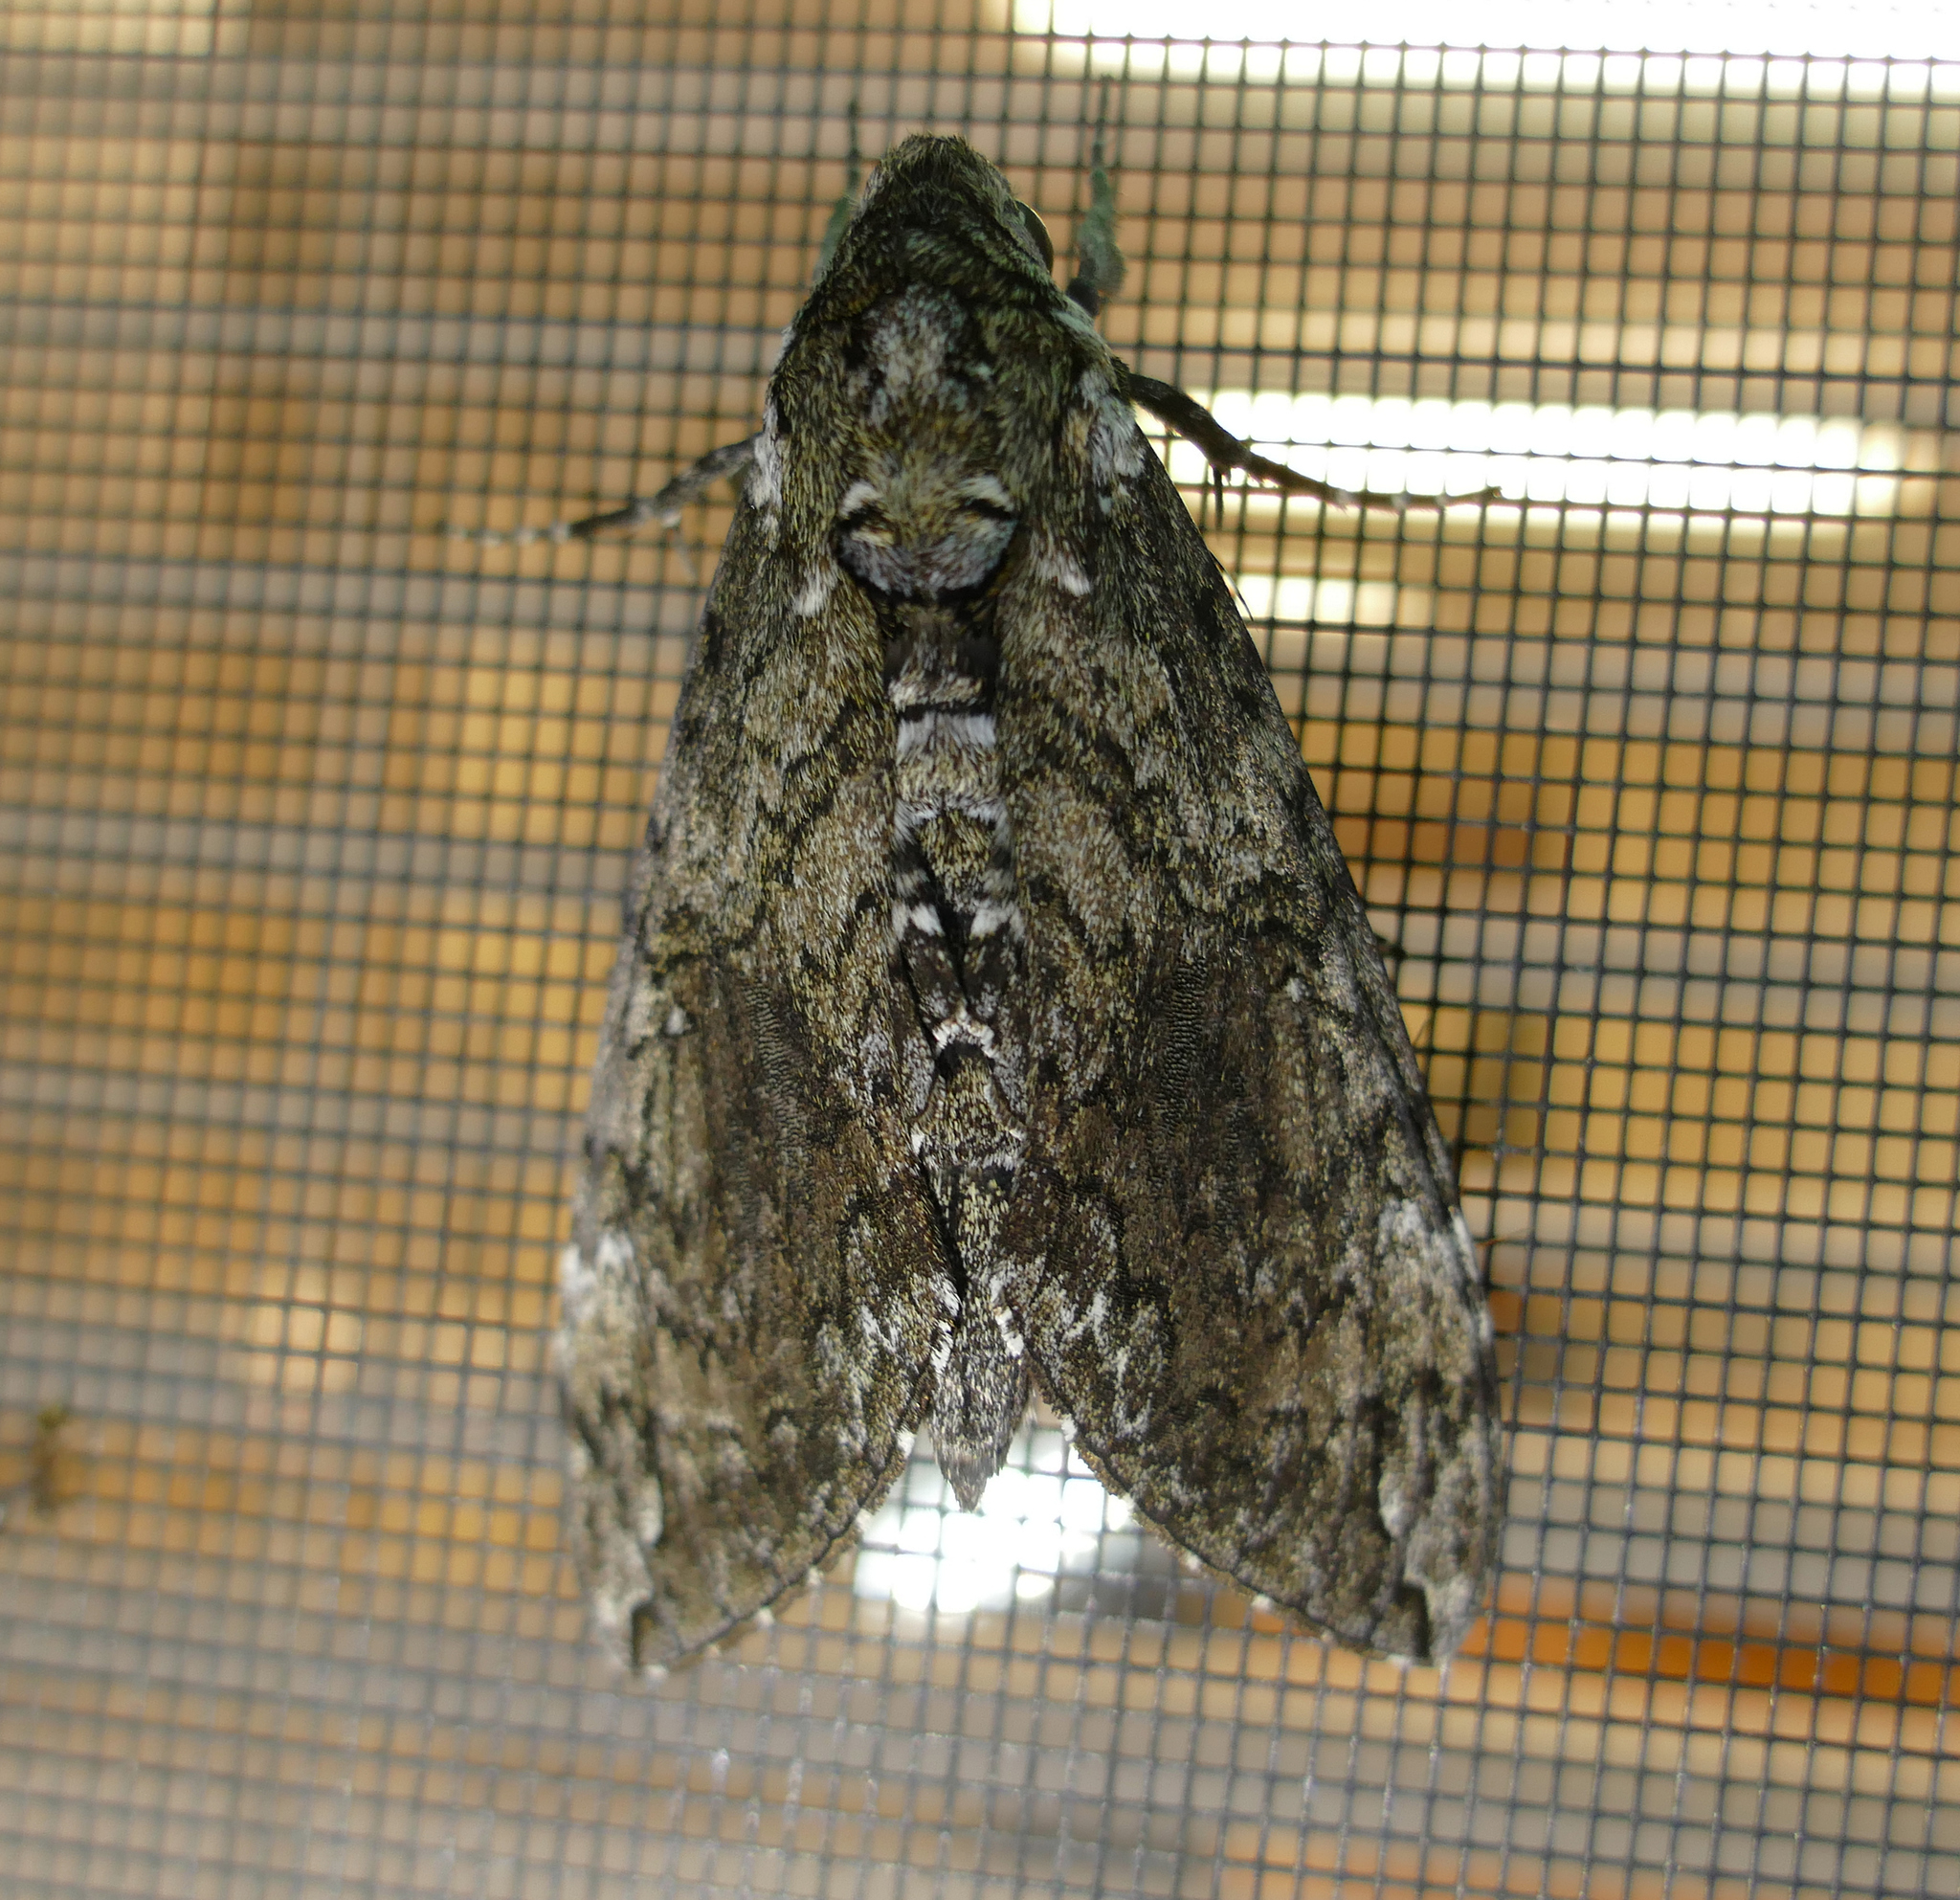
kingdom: Animalia
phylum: Arthropoda
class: Insecta
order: Lepidoptera
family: Sphingidae
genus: Manduca
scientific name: Manduca sexta
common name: Carolina sphinx
